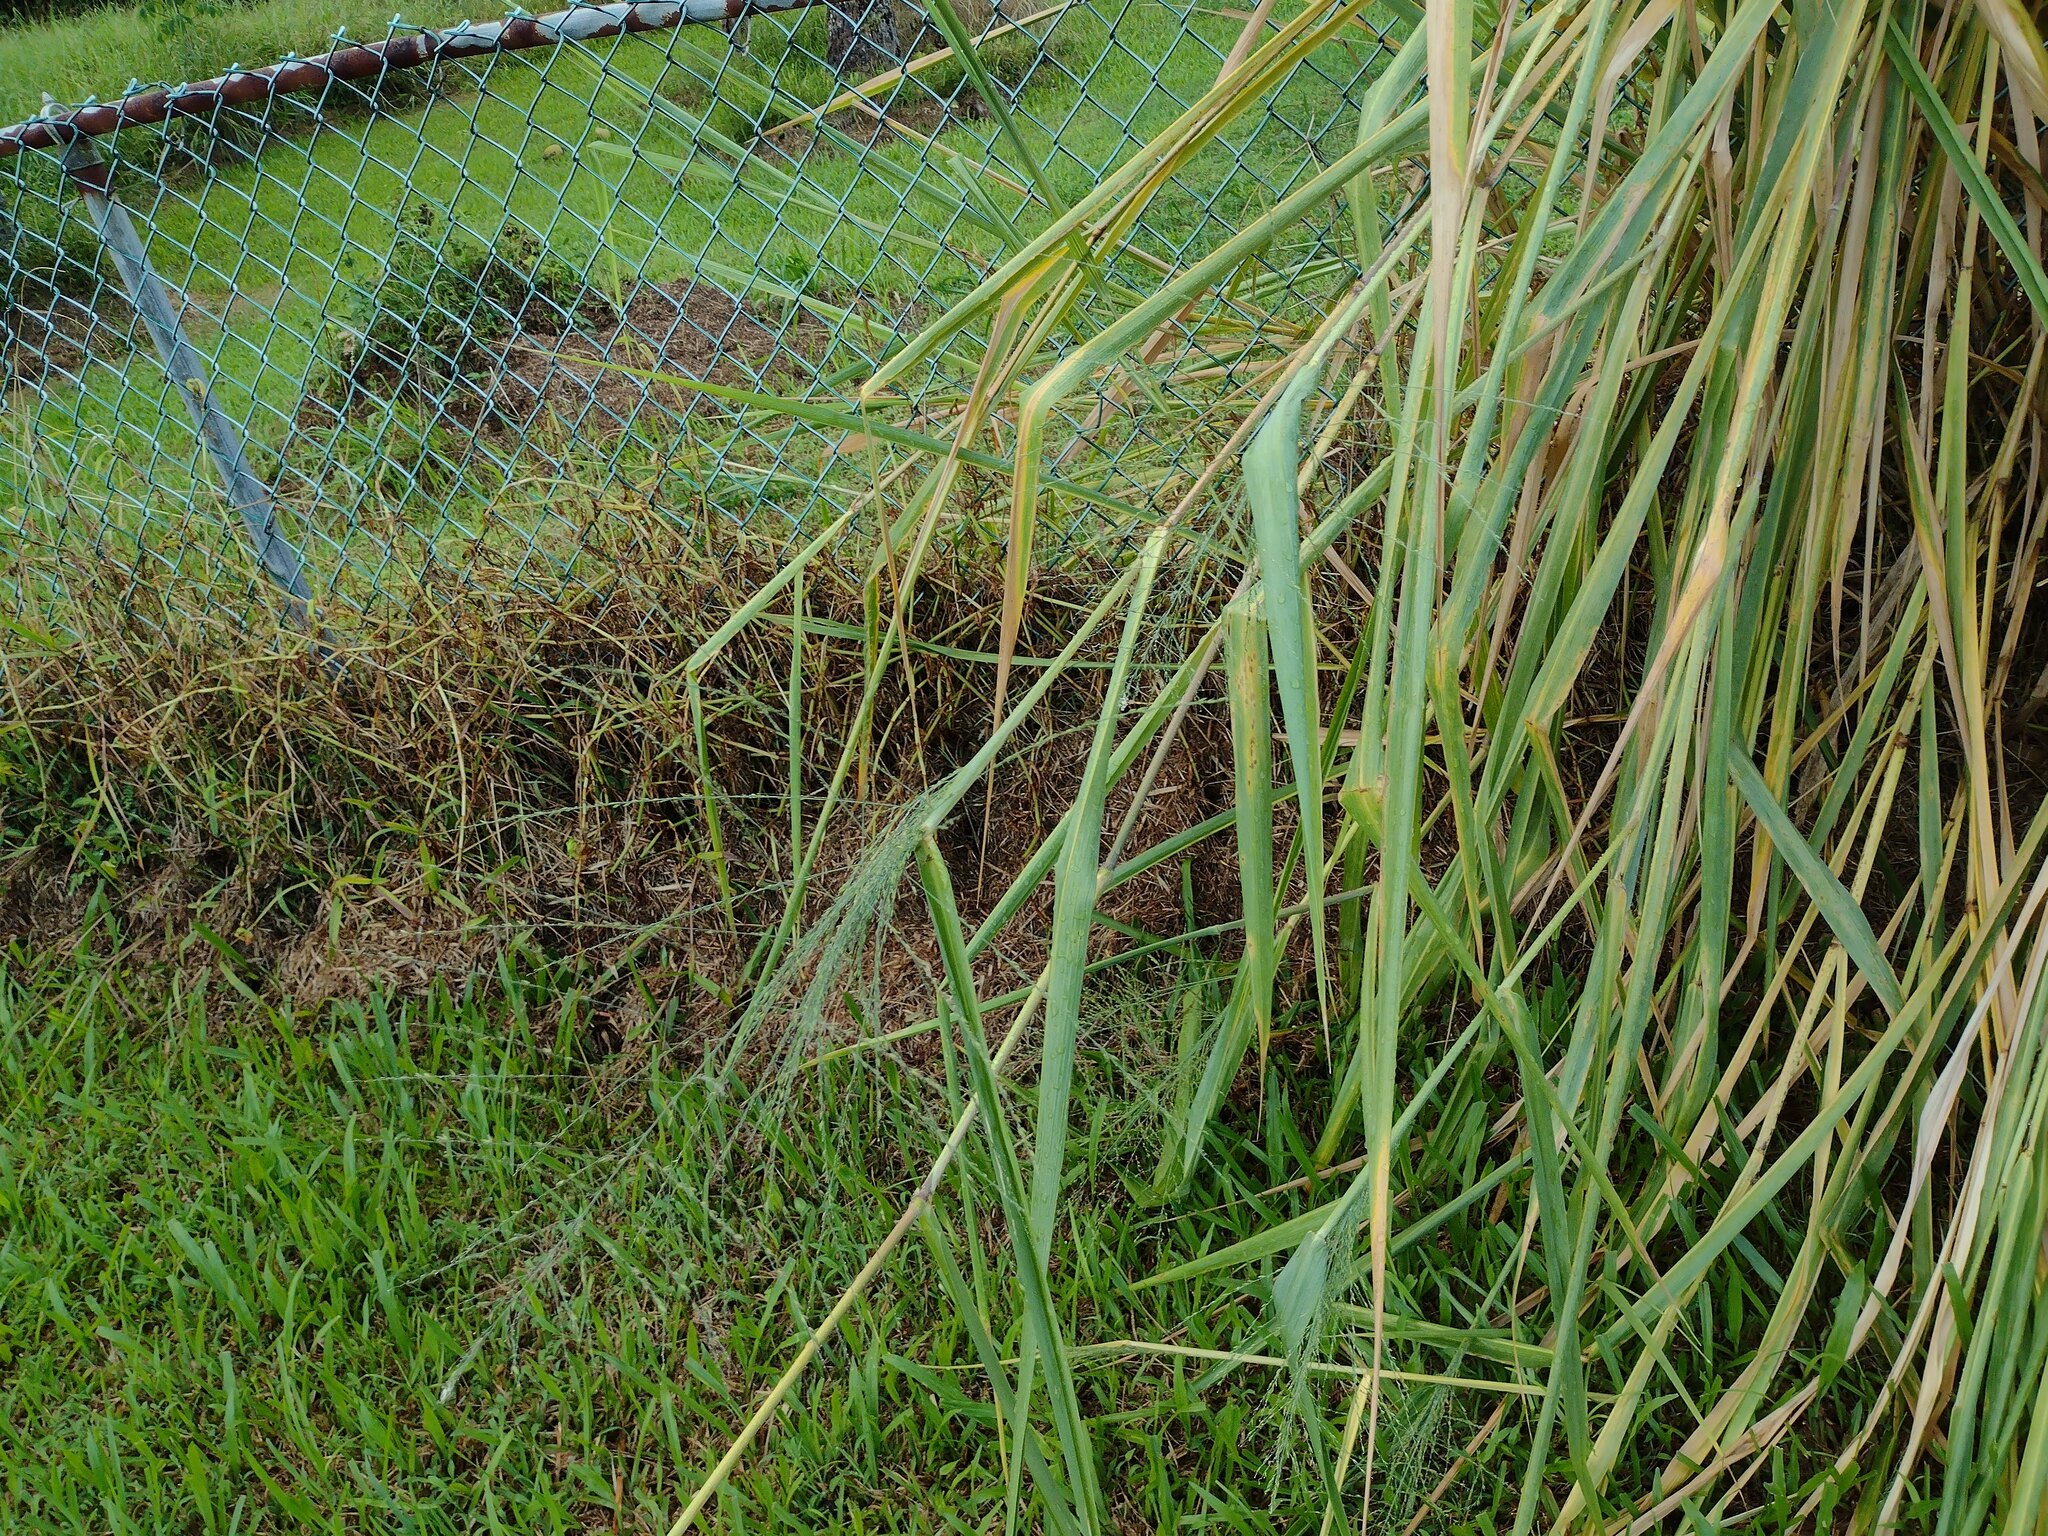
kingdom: Plantae
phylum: Tracheophyta
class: Liliopsida
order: Poales
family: Poaceae
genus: Megathyrsus
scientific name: Megathyrsus maximus
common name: Guineagrass
